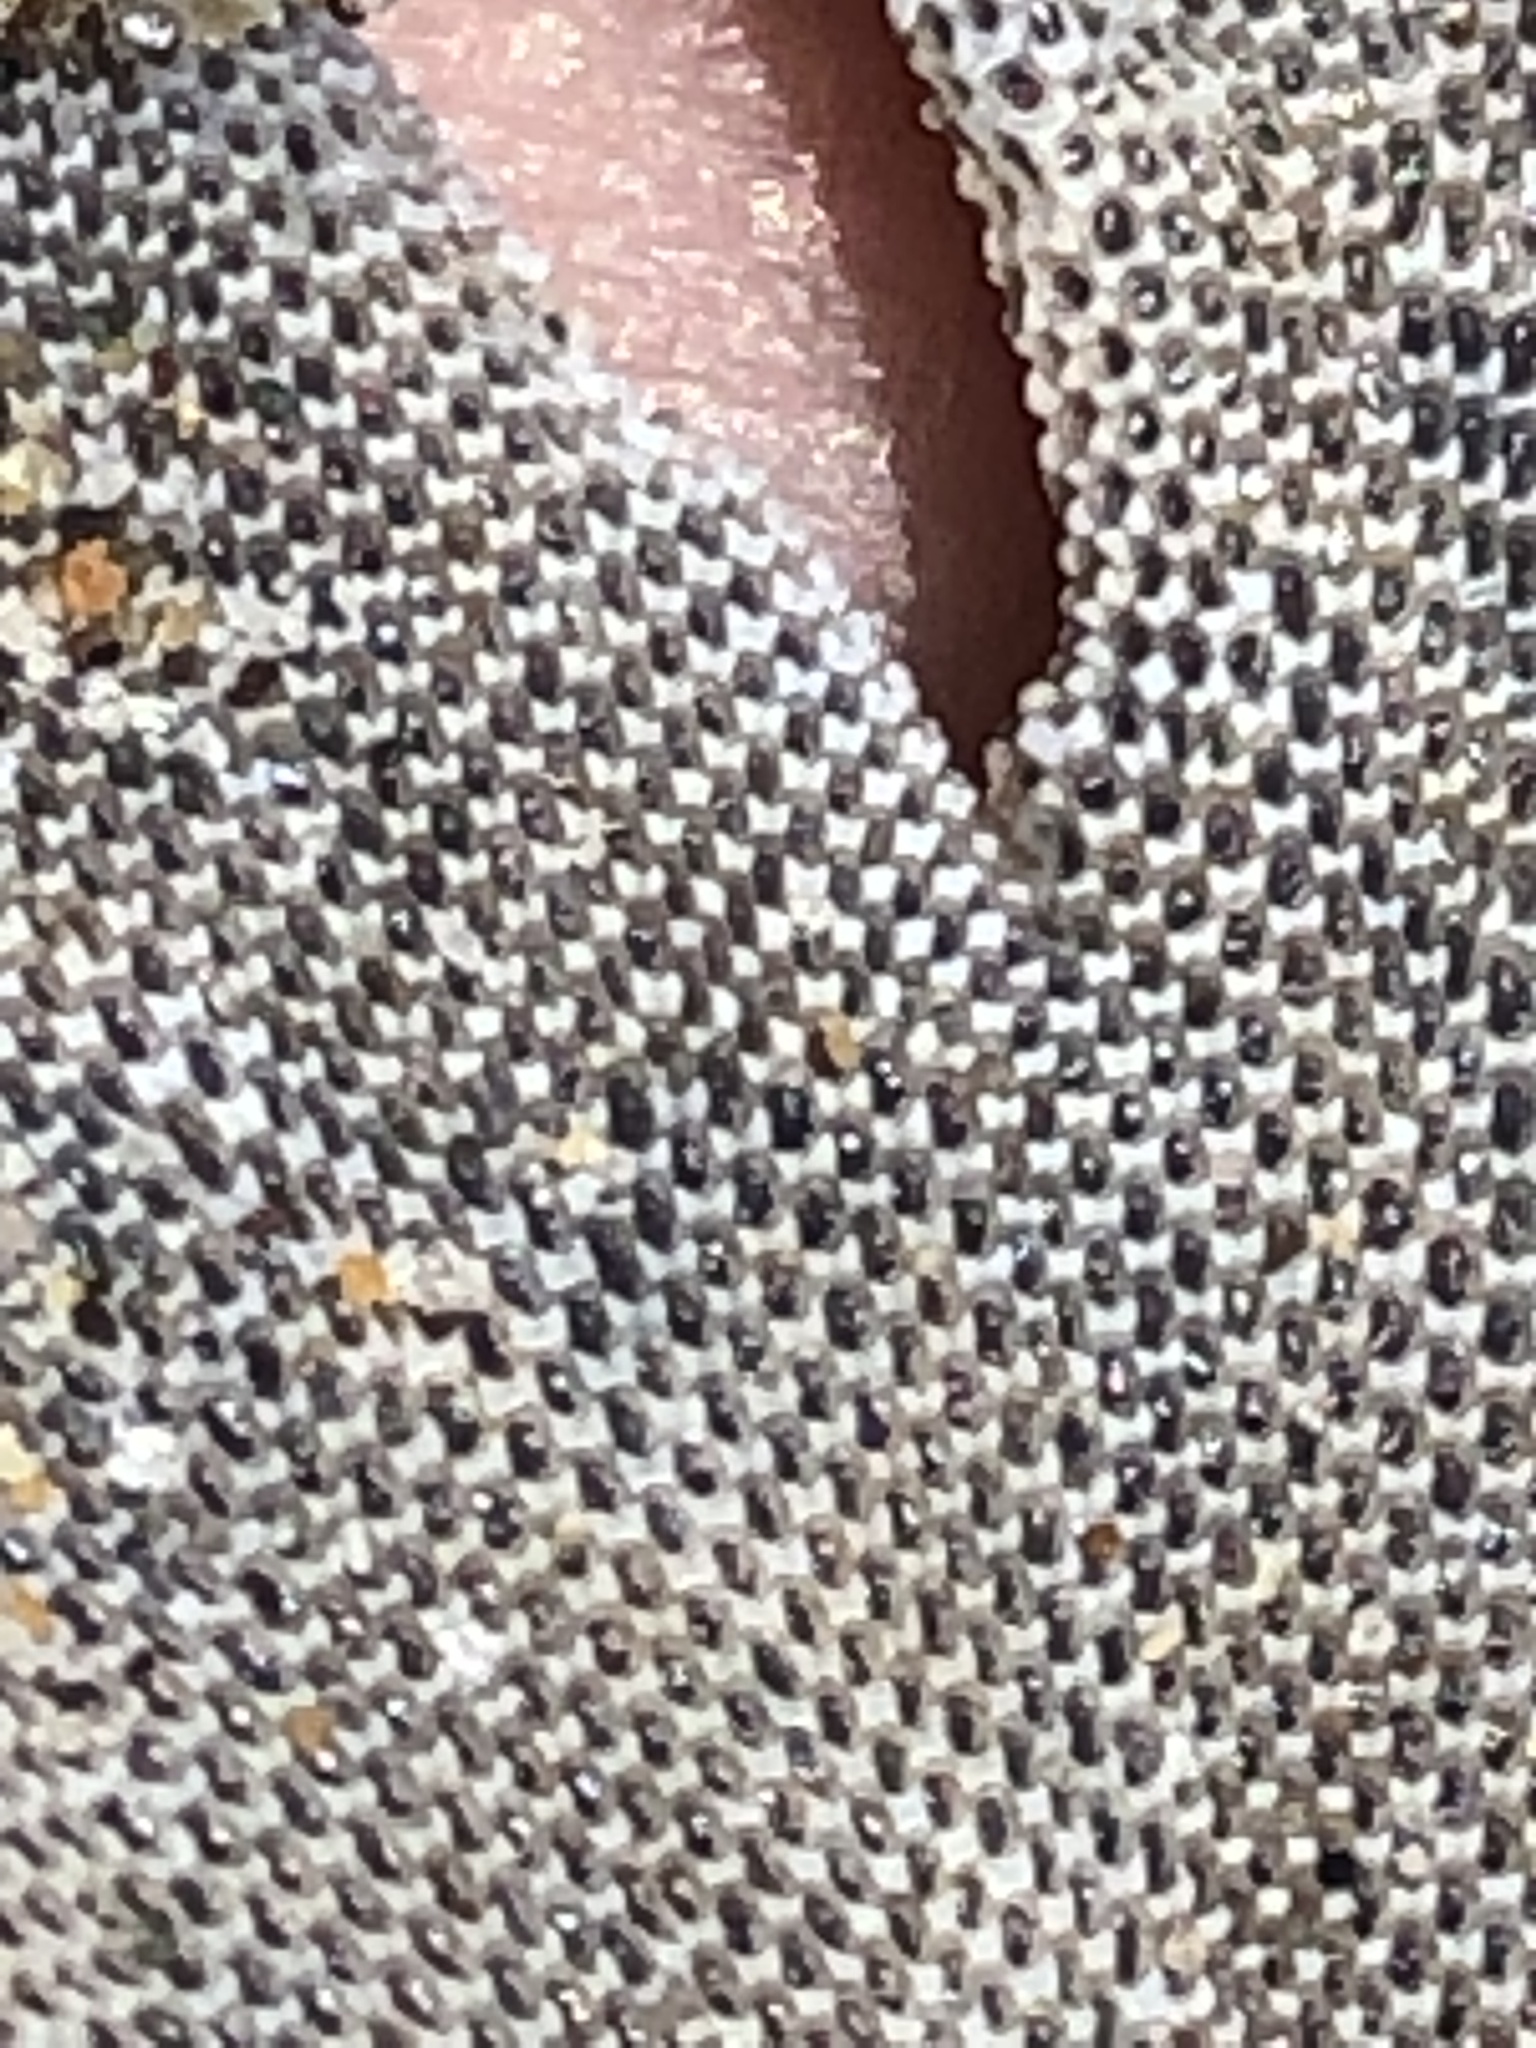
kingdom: Animalia
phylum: Bryozoa
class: Gymnolaemata
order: Cheilostomatida
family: Membraniporidae
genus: Membranipora
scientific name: Membranipora membranacea
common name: Sea mat
